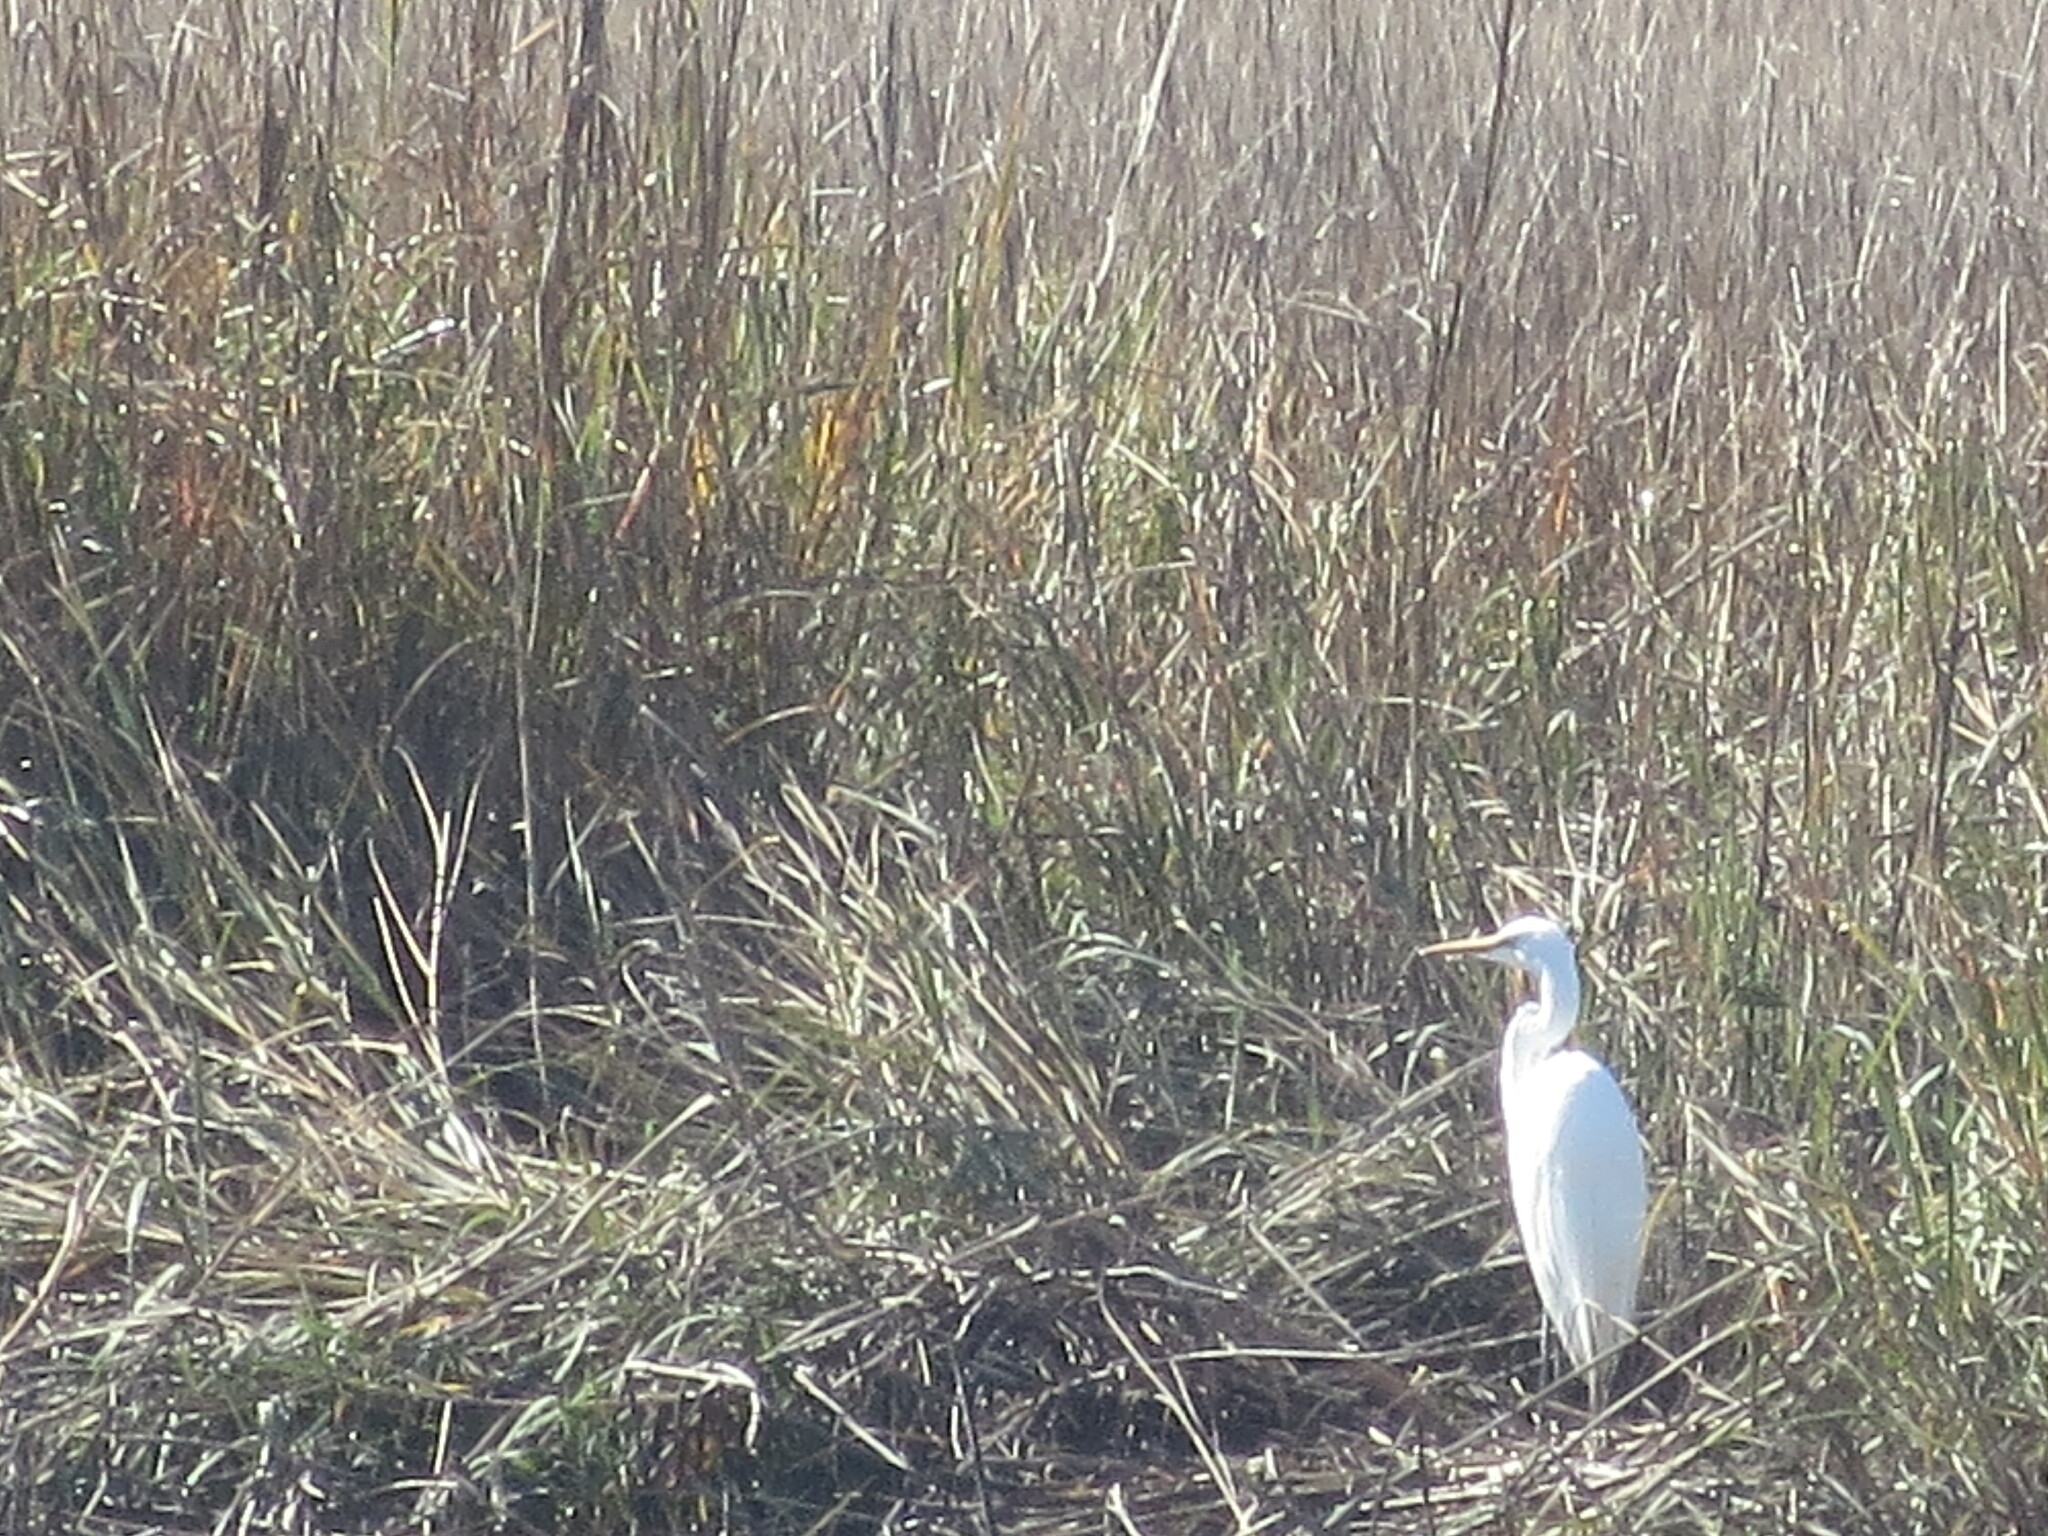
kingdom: Animalia
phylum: Chordata
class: Aves
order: Pelecaniformes
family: Ardeidae
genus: Ardea
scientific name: Ardea alba
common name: Great egret
